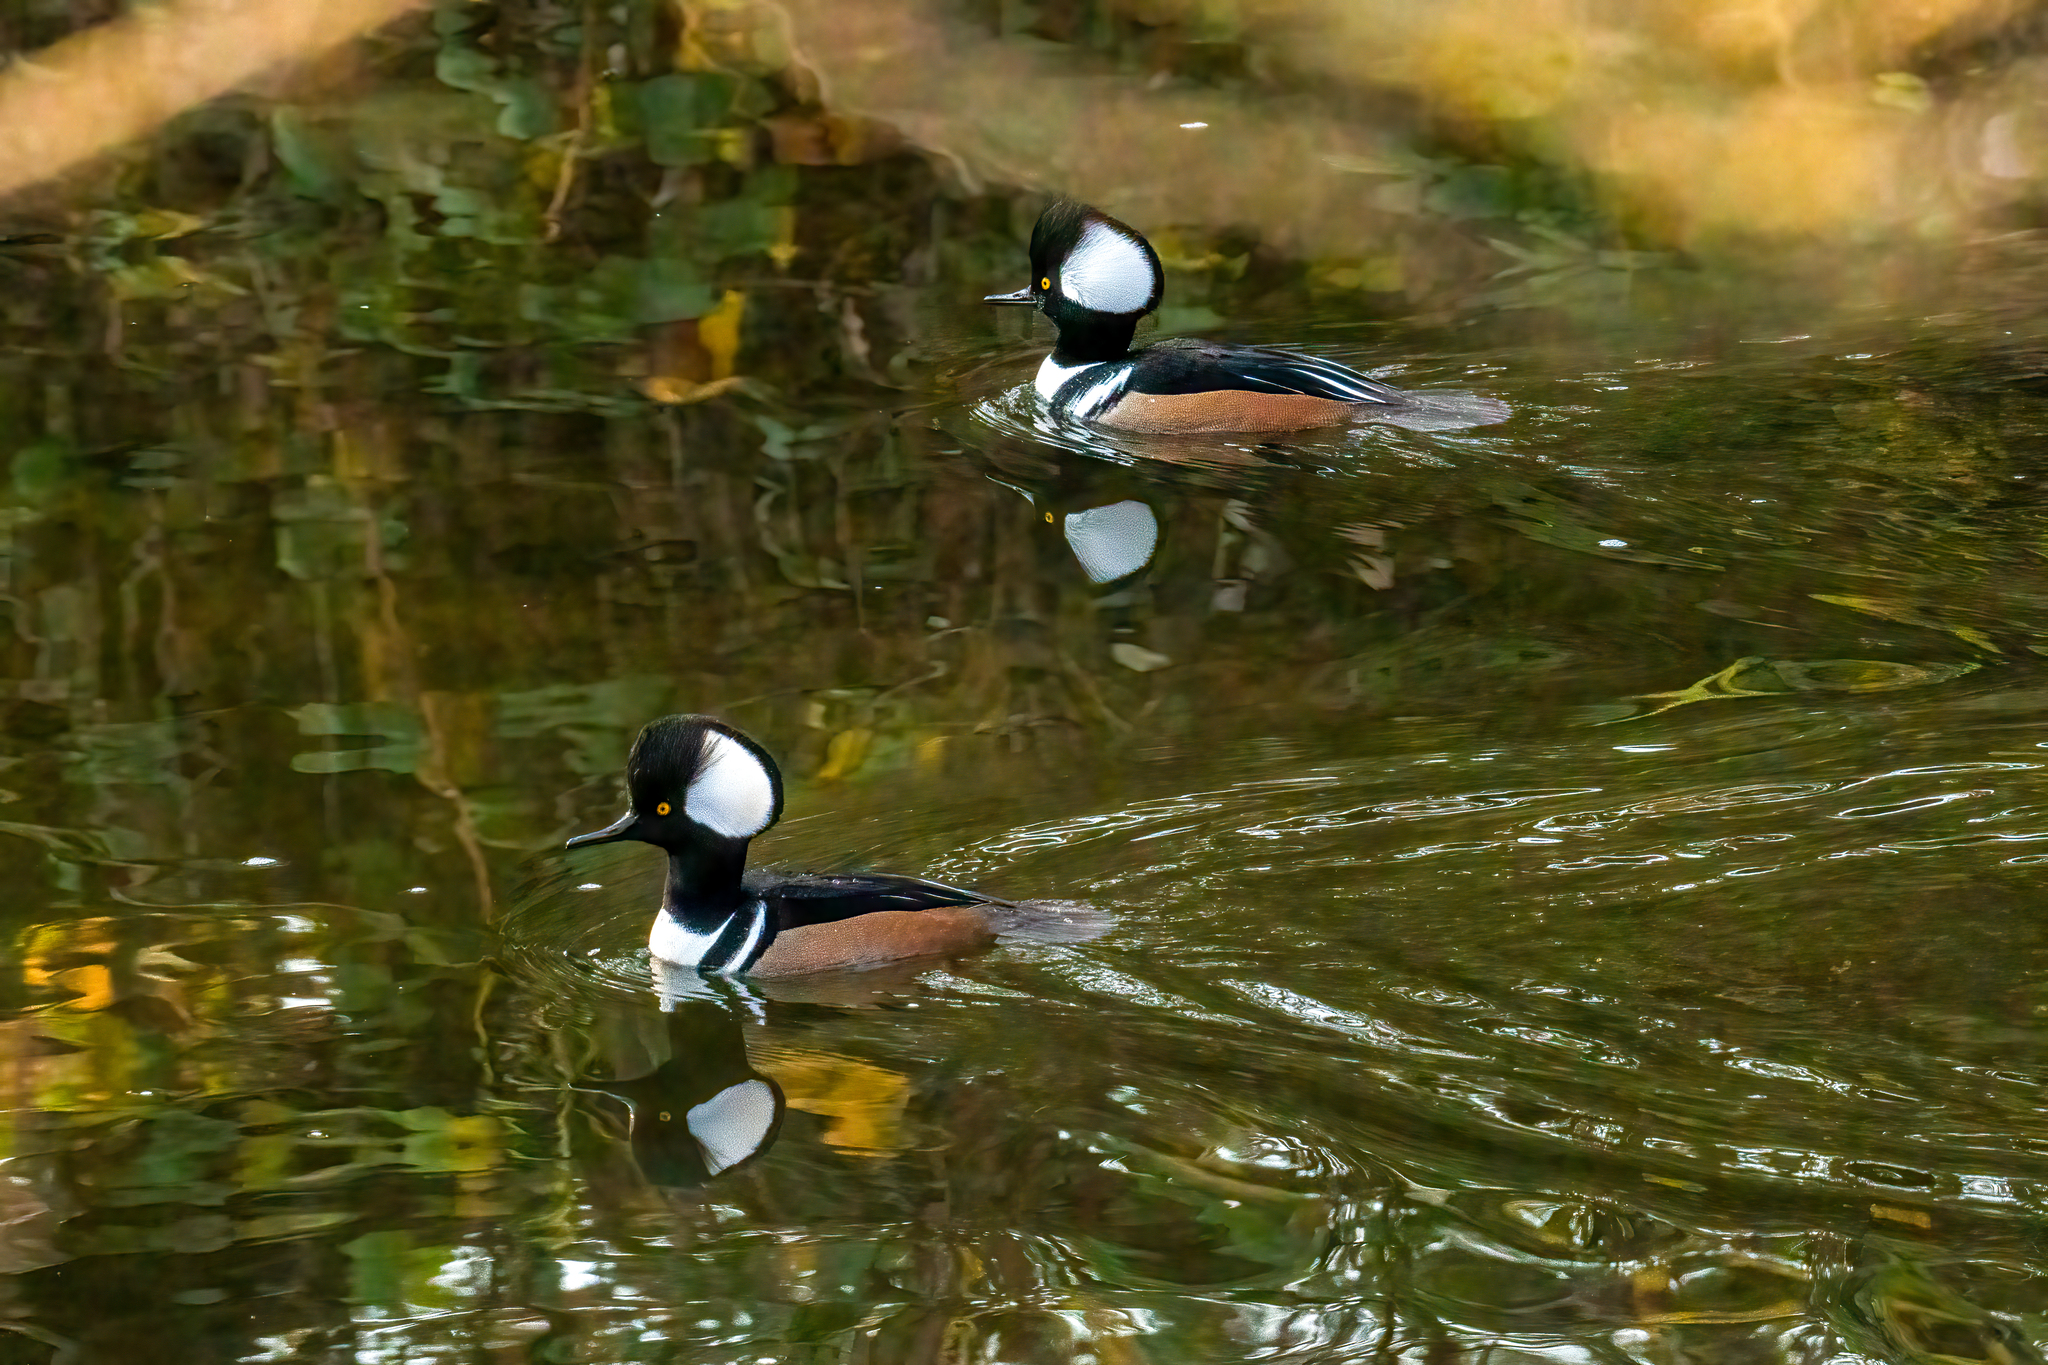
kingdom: Animalia
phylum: Chordata
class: Aves
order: Anseriformes
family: Anatidae
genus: Lophodytes
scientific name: Lophodytes cucullatus
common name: Hooded merganser
